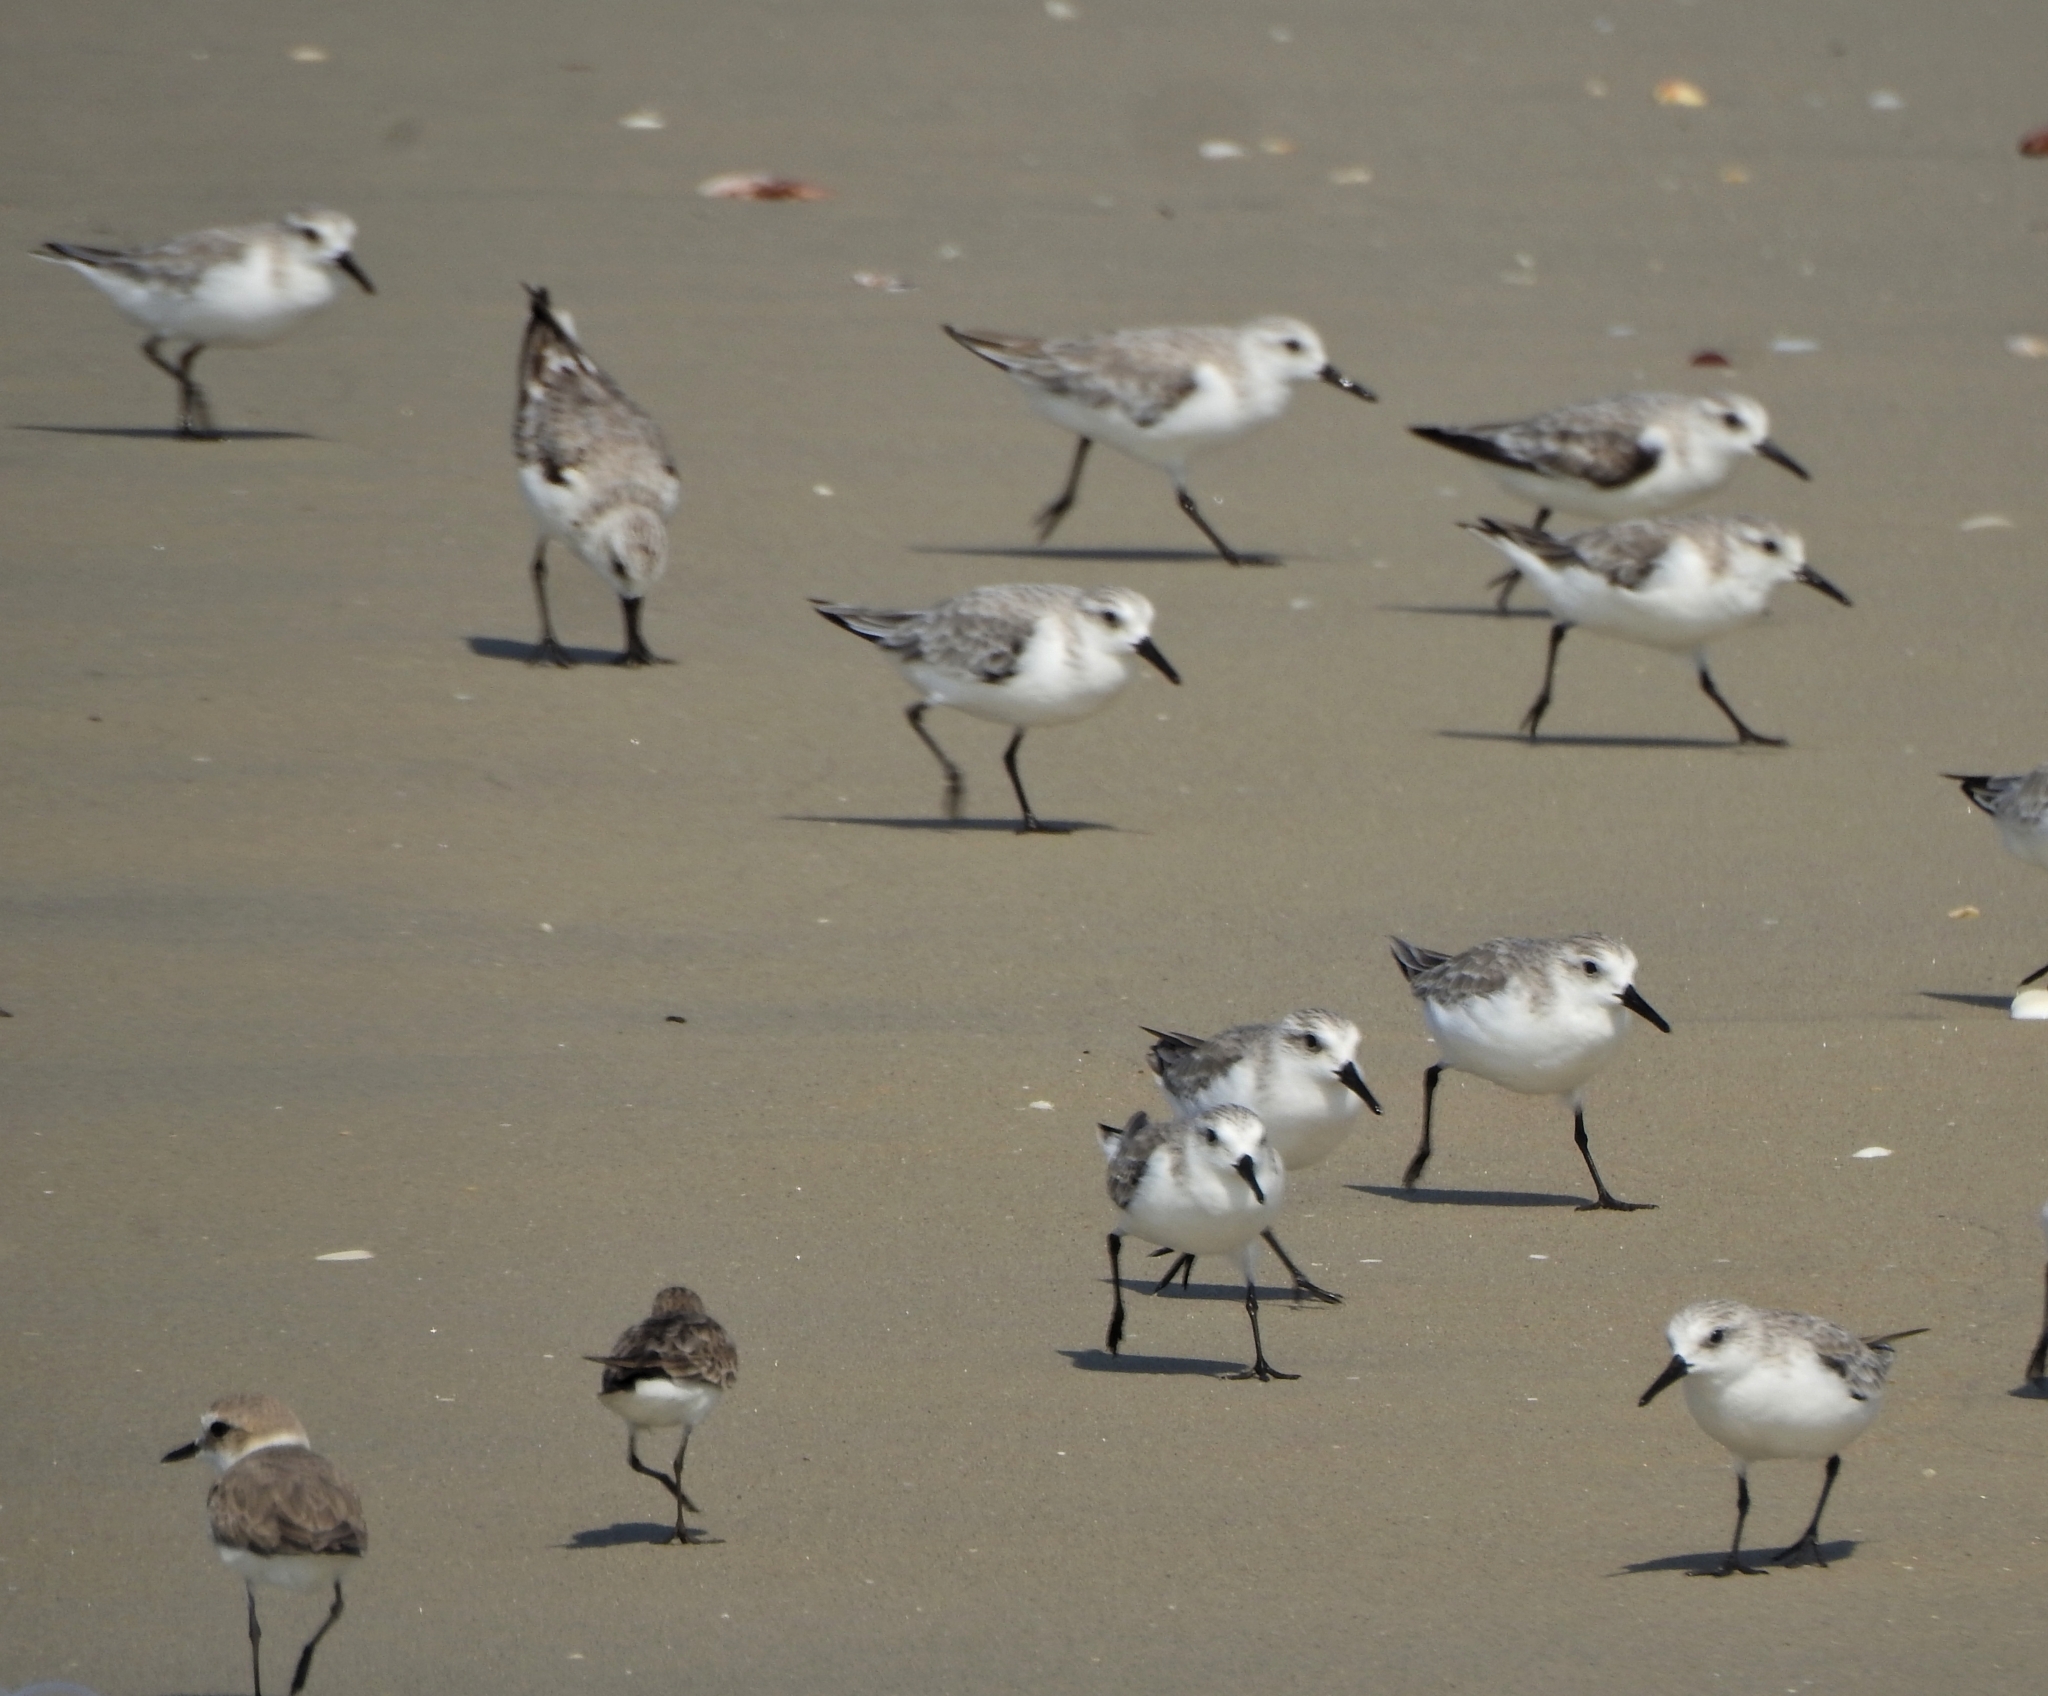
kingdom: Animalia
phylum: Chordata
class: Aves
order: Charadriiformes
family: Scolopacidae
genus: Calidris
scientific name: Calidris alba
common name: Sanderling
